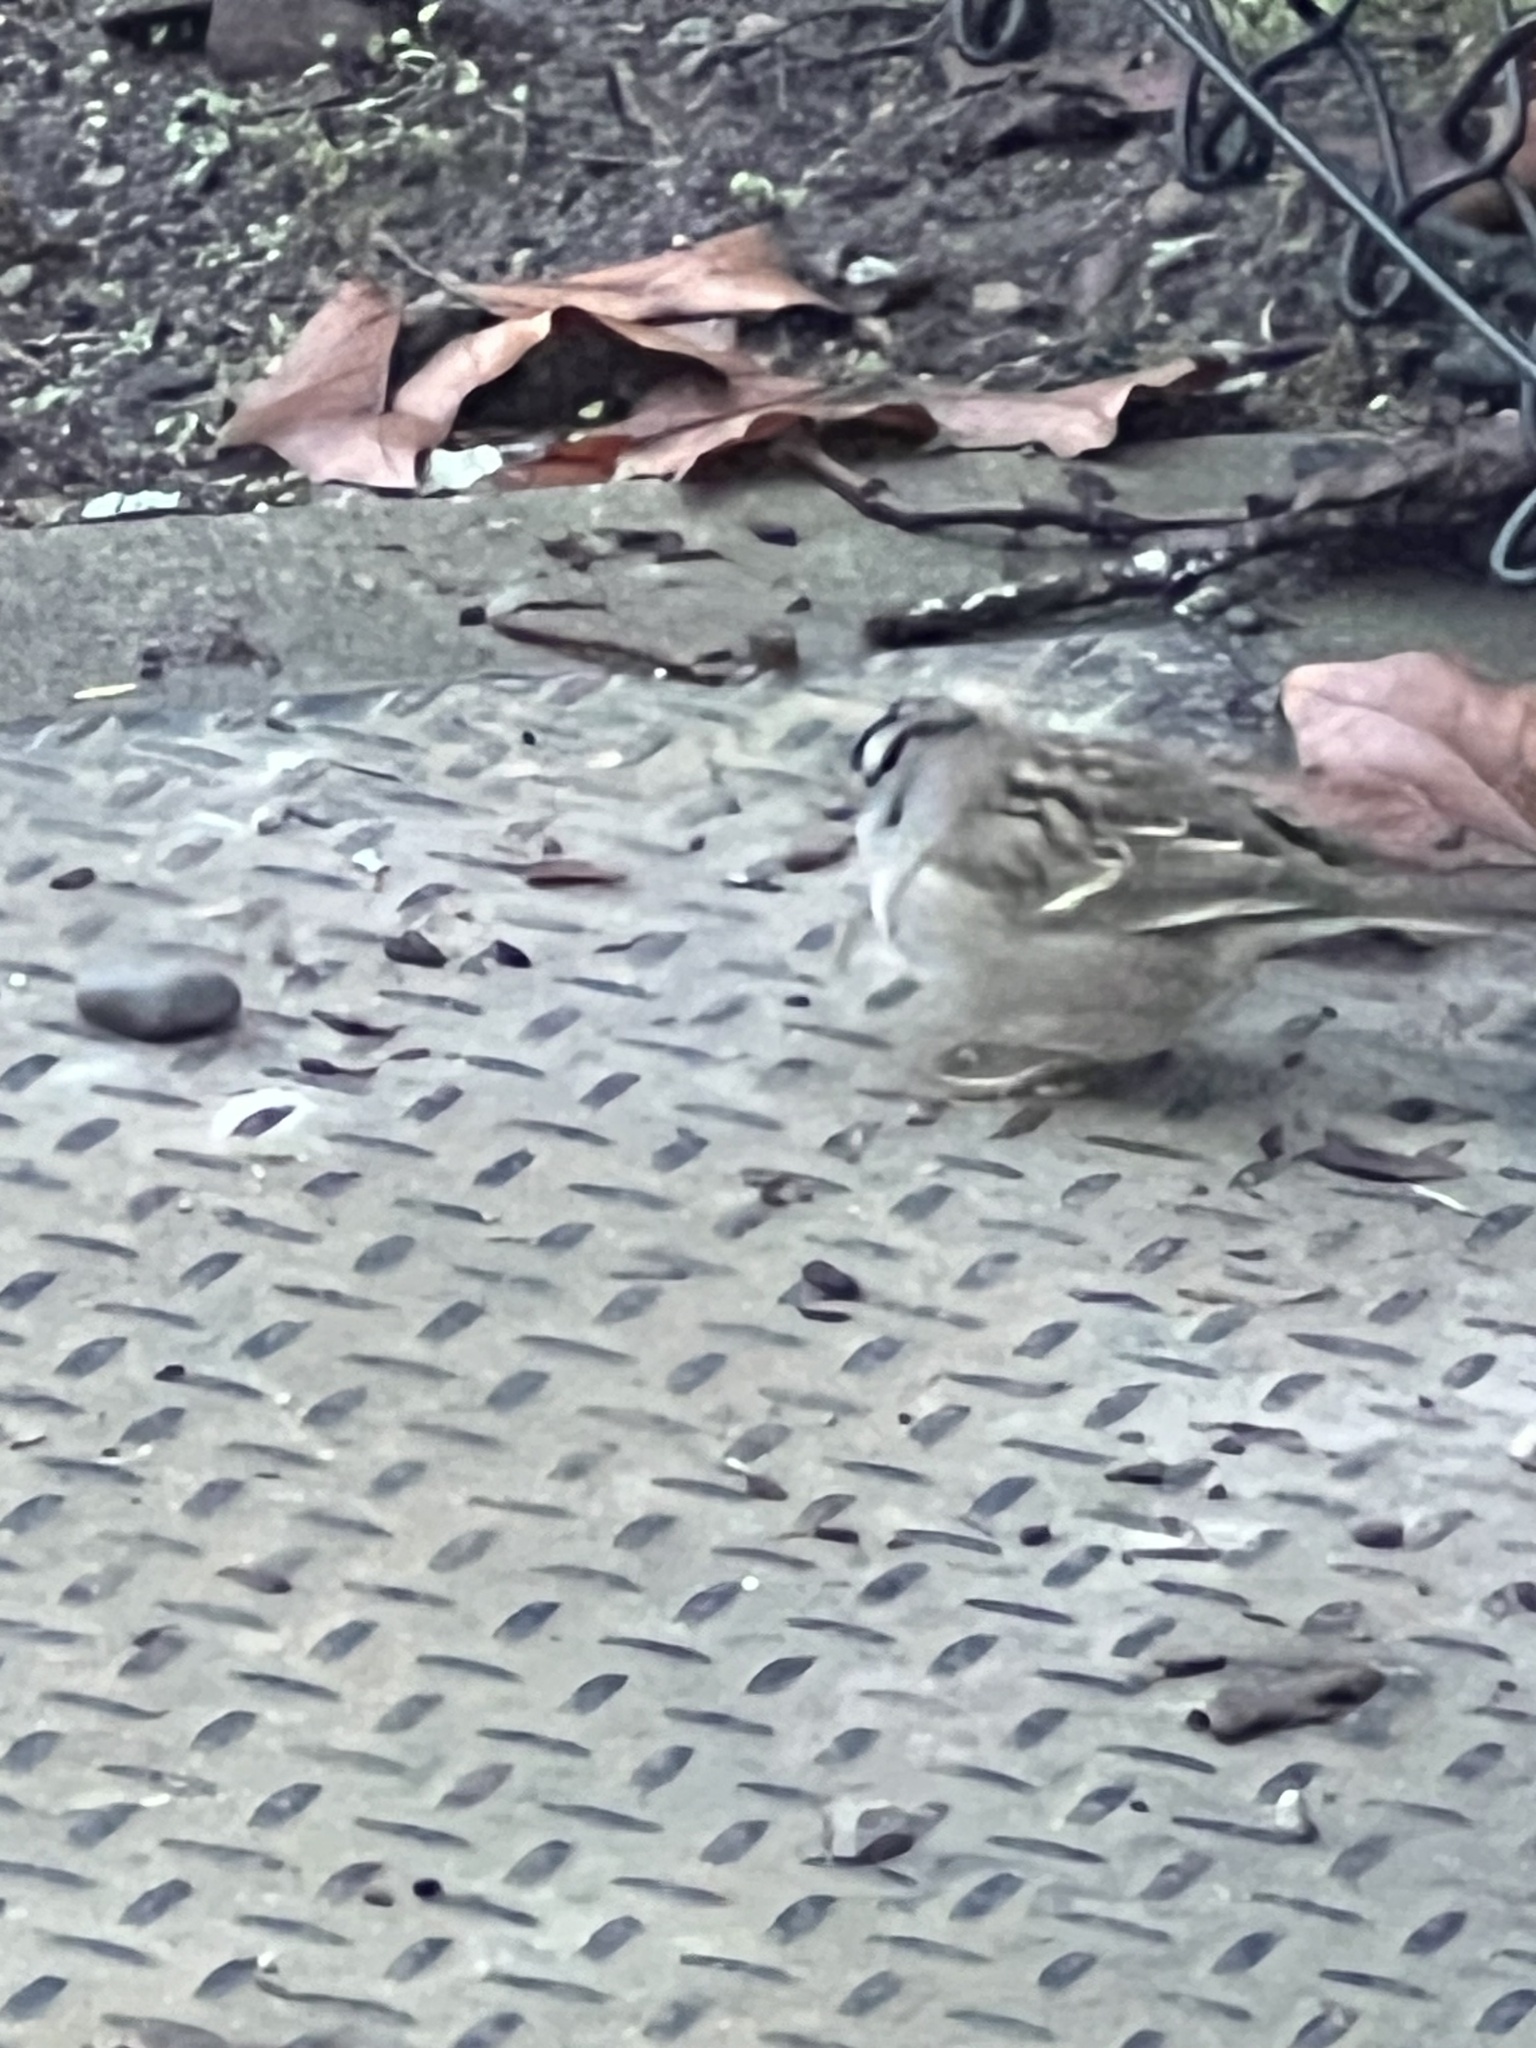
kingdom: Animalia
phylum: Chordata
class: Aves
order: Passeriformes
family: Passerellidae
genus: Zonotrichia
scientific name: Zonotrichia leucophrys
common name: White-crowned sparrow
